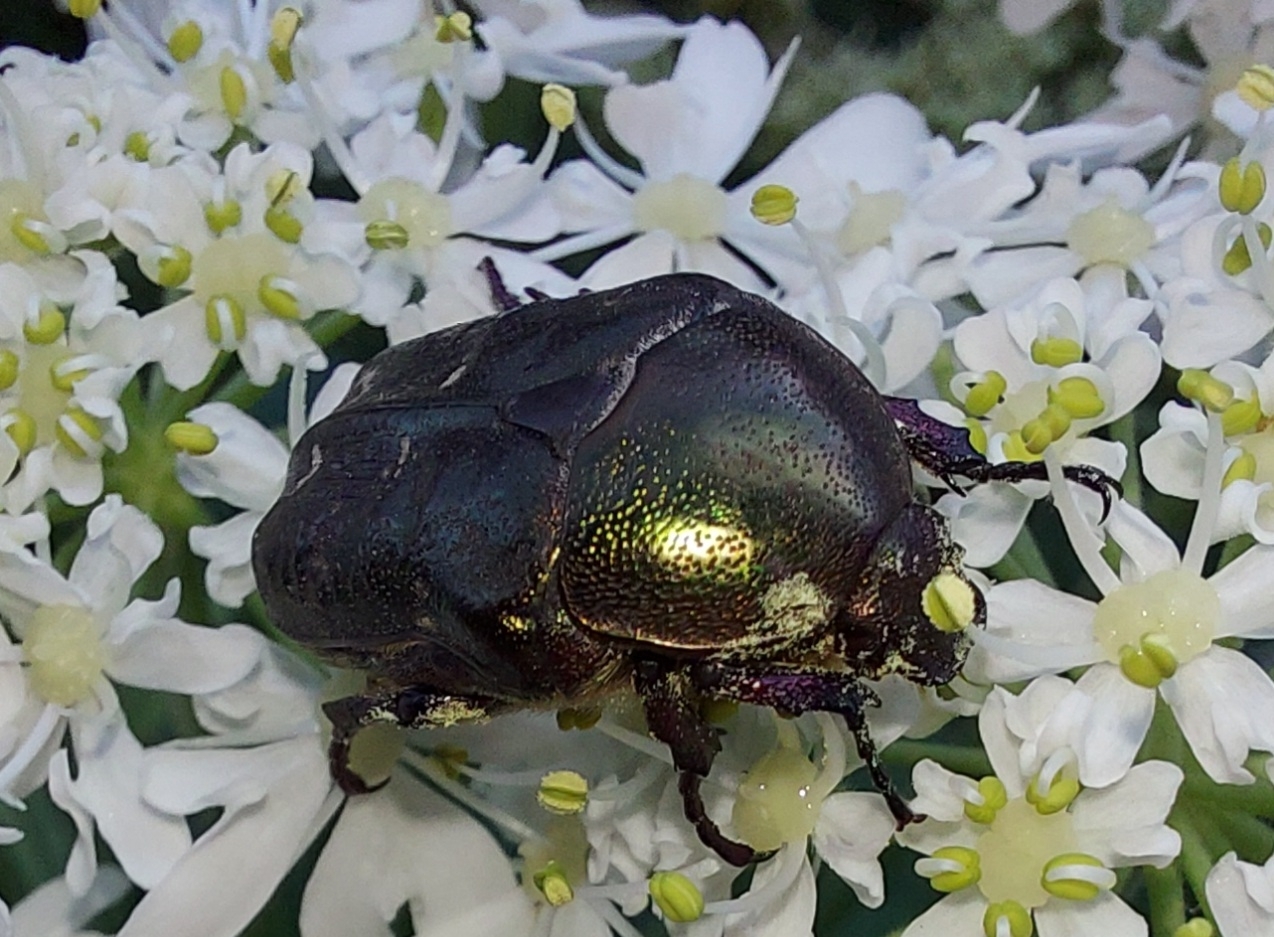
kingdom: Animalia
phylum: Arthropoda
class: Insecta
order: Coleoptera
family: Scarabaeidae
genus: Protaetia
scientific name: Protaetia cuprea
